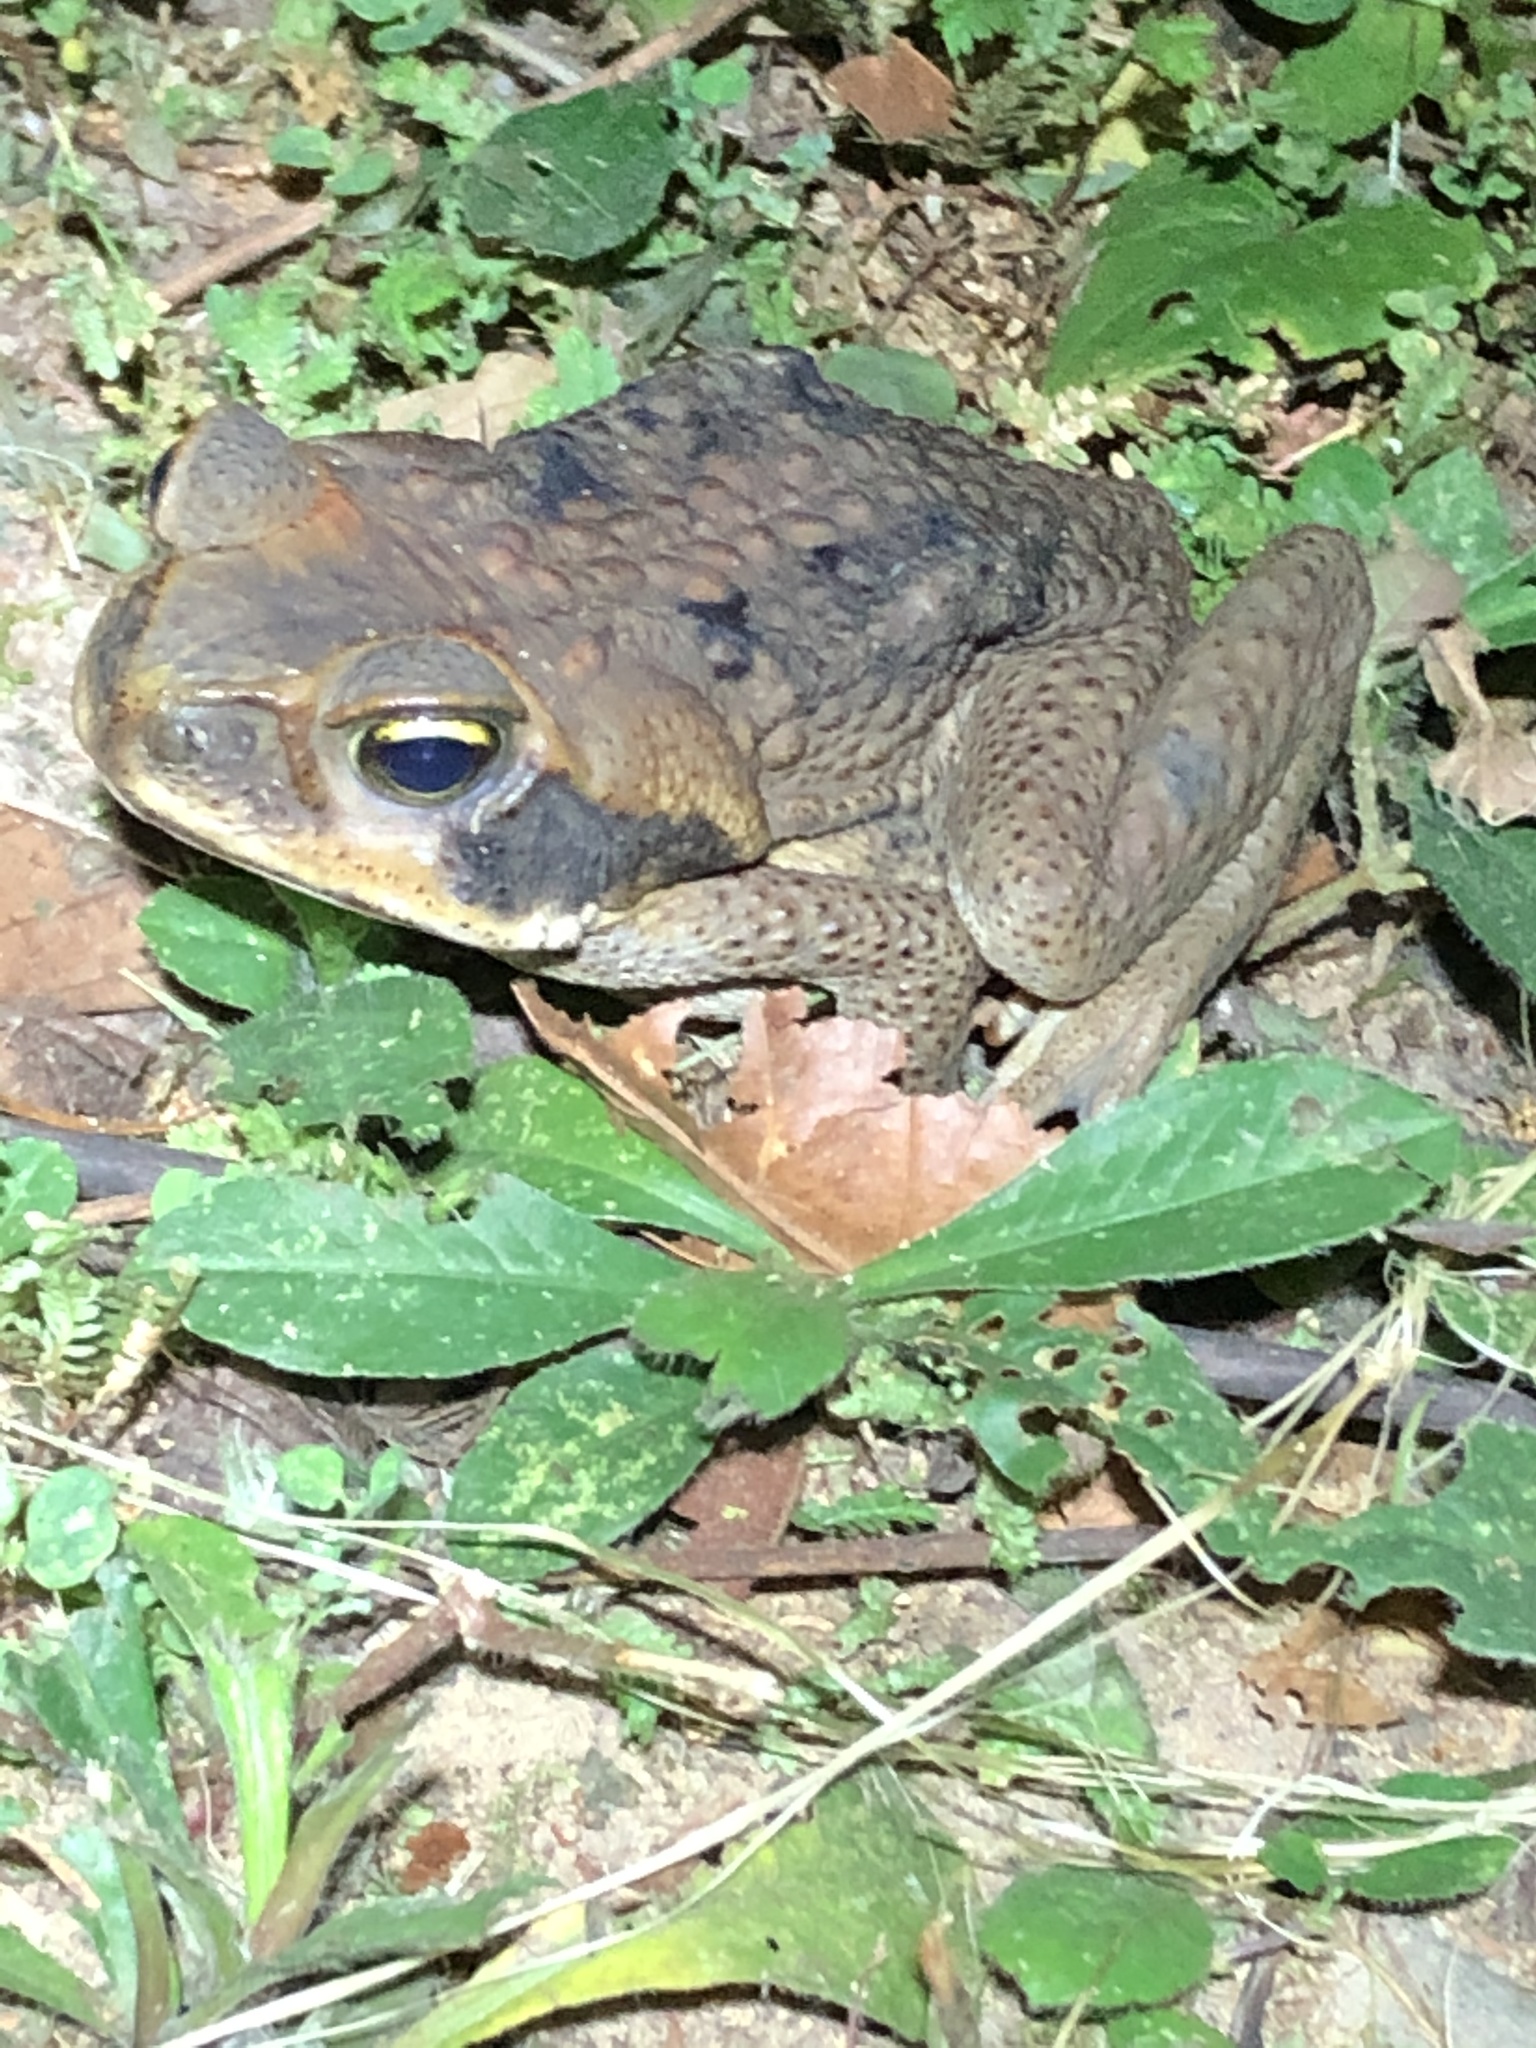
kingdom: Animalia
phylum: Chordata
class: Amphibia
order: Anura
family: Bufonidae
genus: Rhinella
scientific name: Rhinella marina
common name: Cane toad
